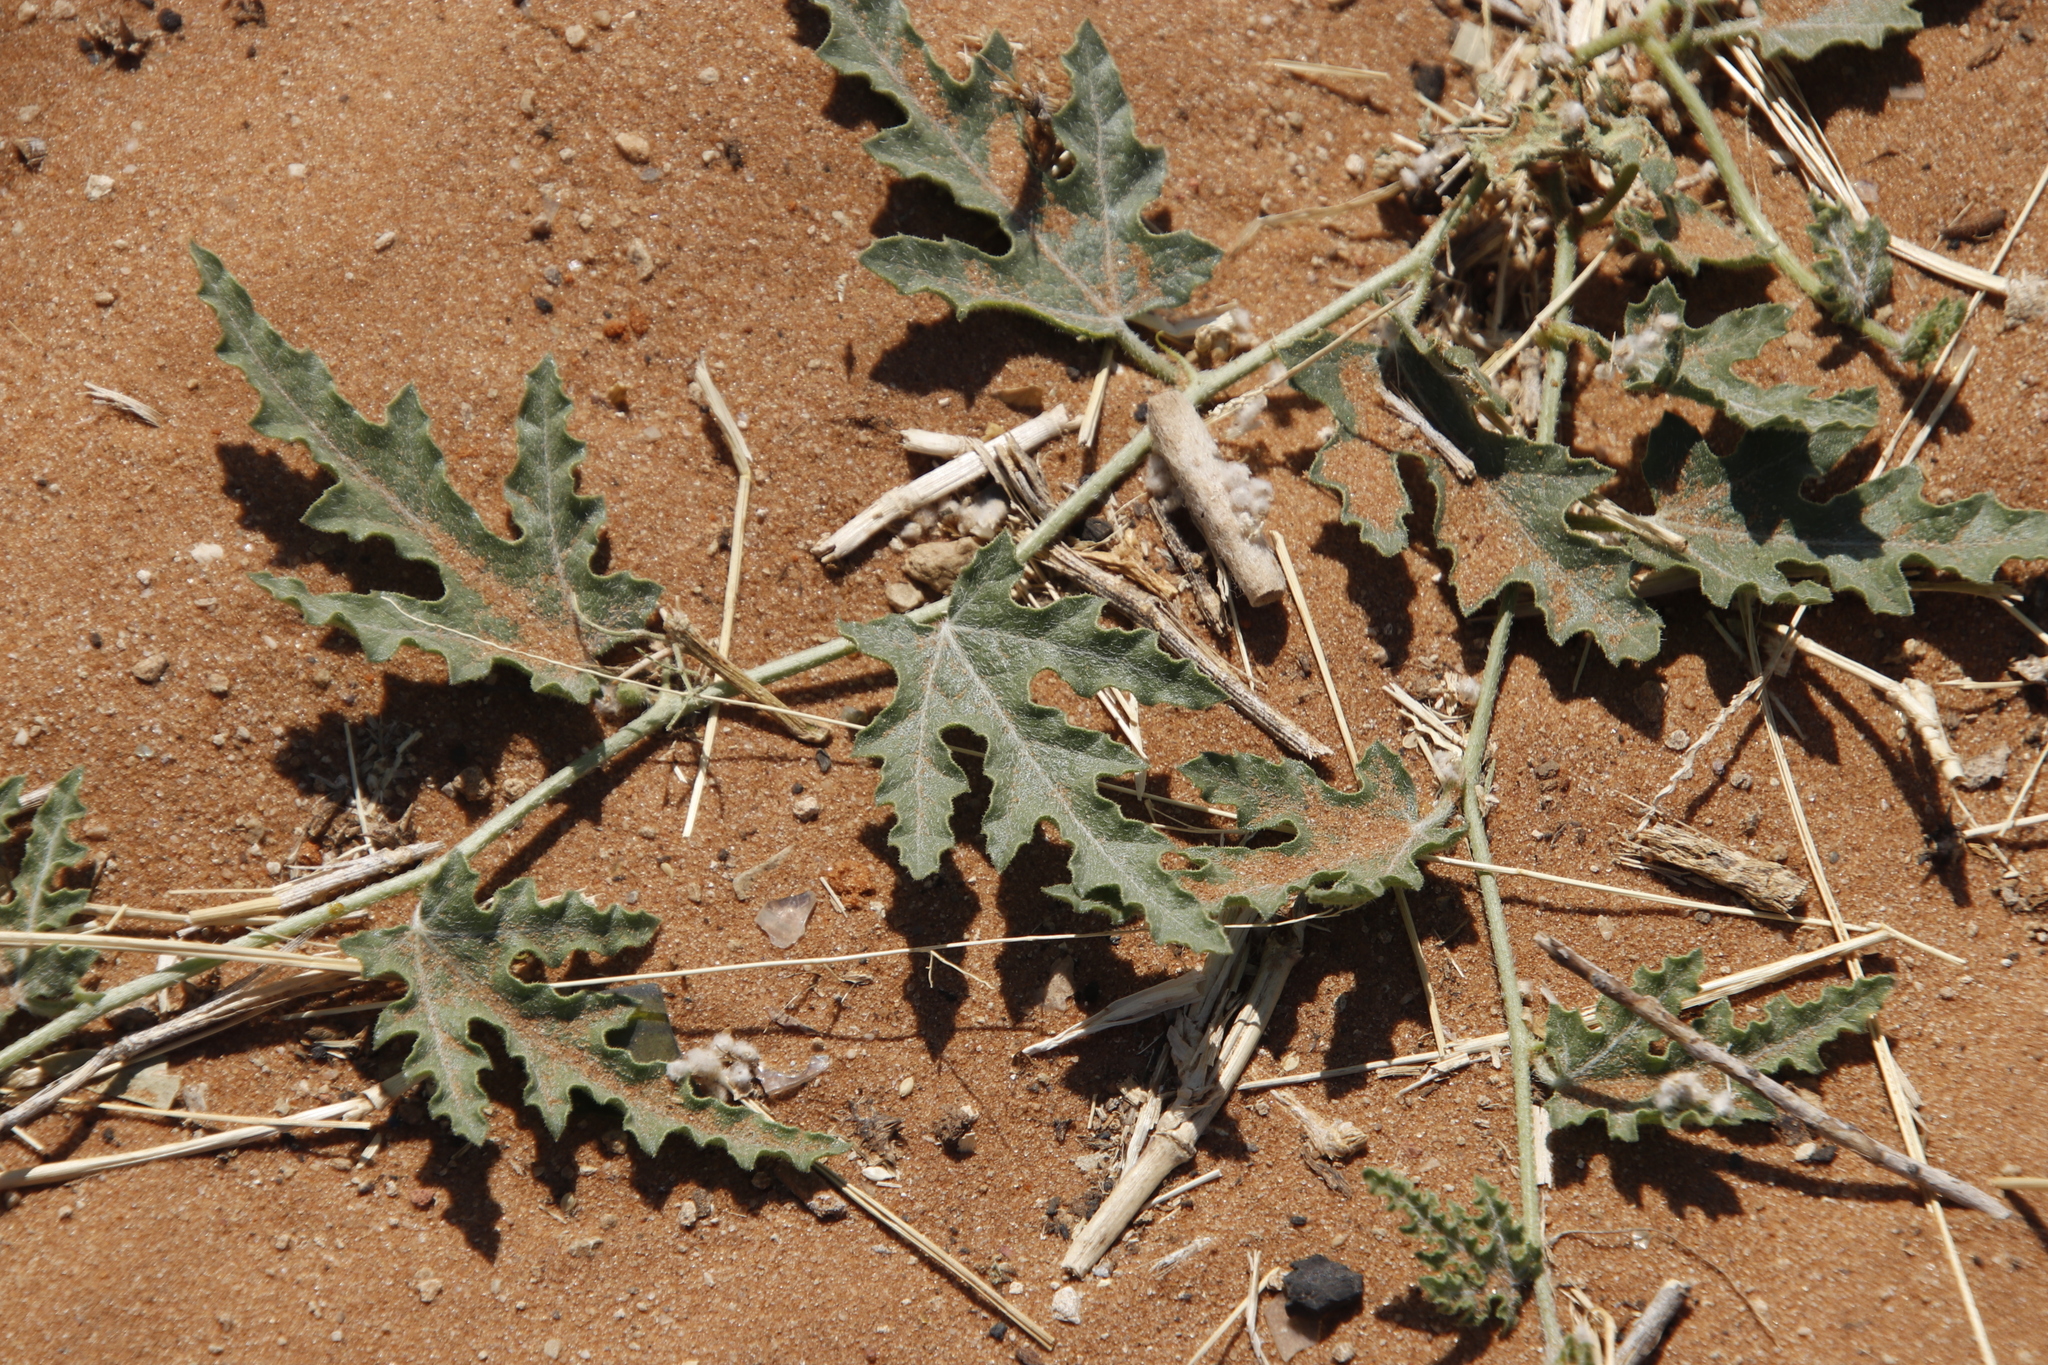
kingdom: Plantae
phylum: Tracheophyta
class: Magnoliopsida
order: Cucurbitales
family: Cucurbitaceae
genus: Citrullus
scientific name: Citrullus naudinianus
